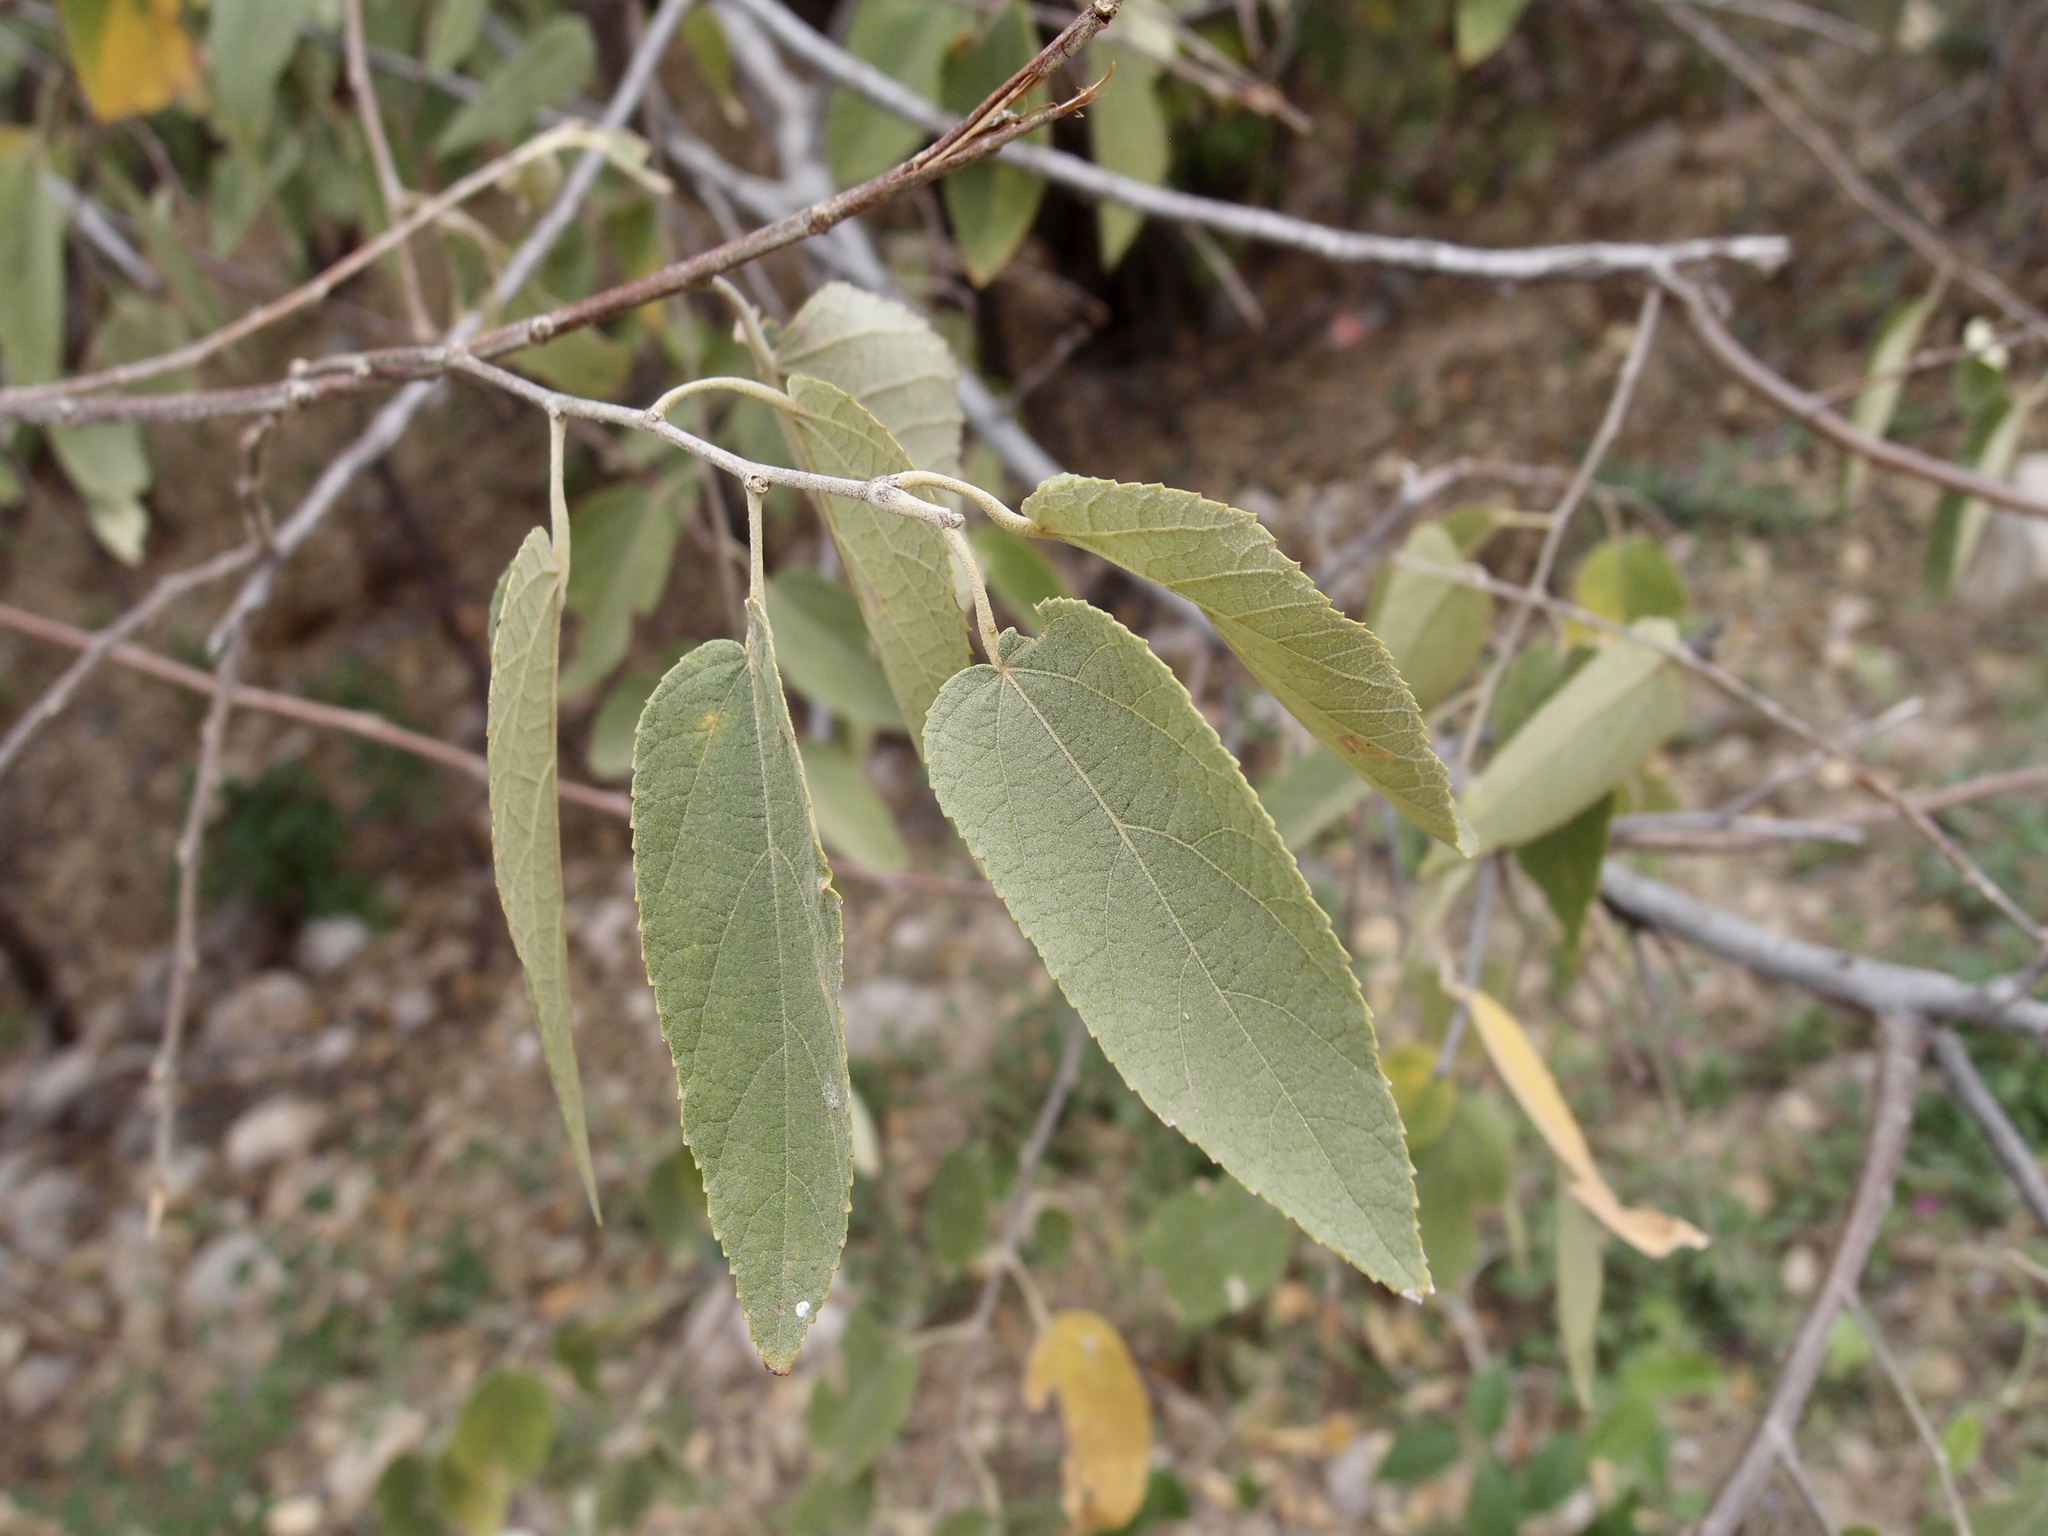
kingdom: Plantae
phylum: Tracheophyta
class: Magnoliopsida
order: Malvales
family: Malvaceae
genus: Guazuma
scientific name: Guazuma ulmifolia
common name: Bastard-cedar
